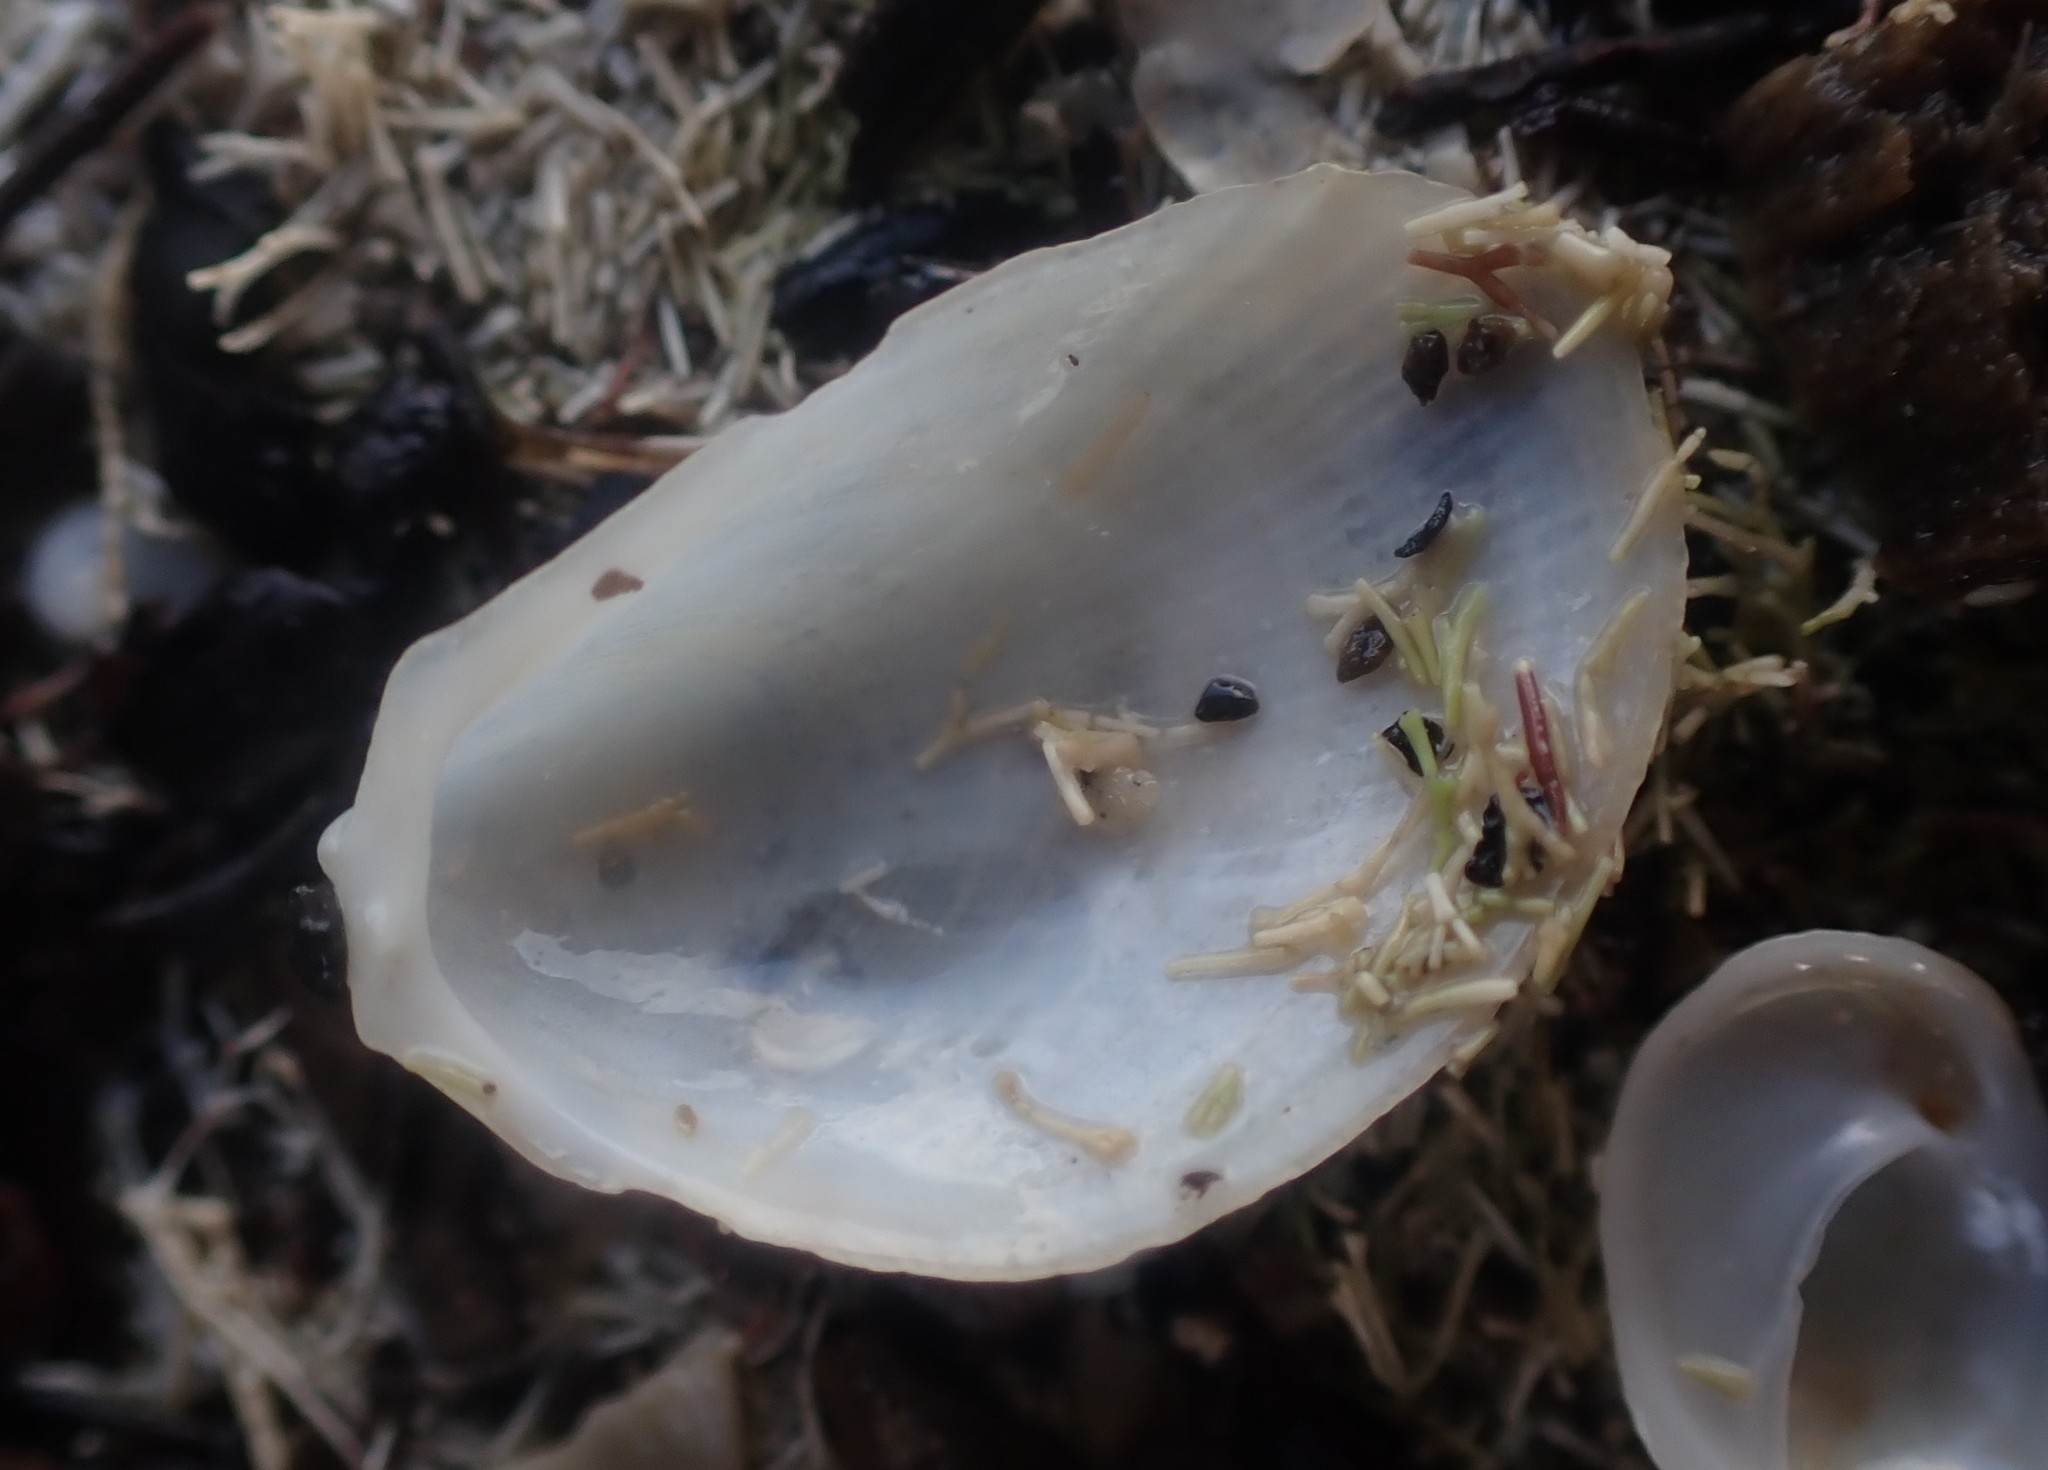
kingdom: Animalia
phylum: Mollusca
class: Bivalvia
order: Limida
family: Limidae
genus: Limaria
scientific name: Limaria orientalis
